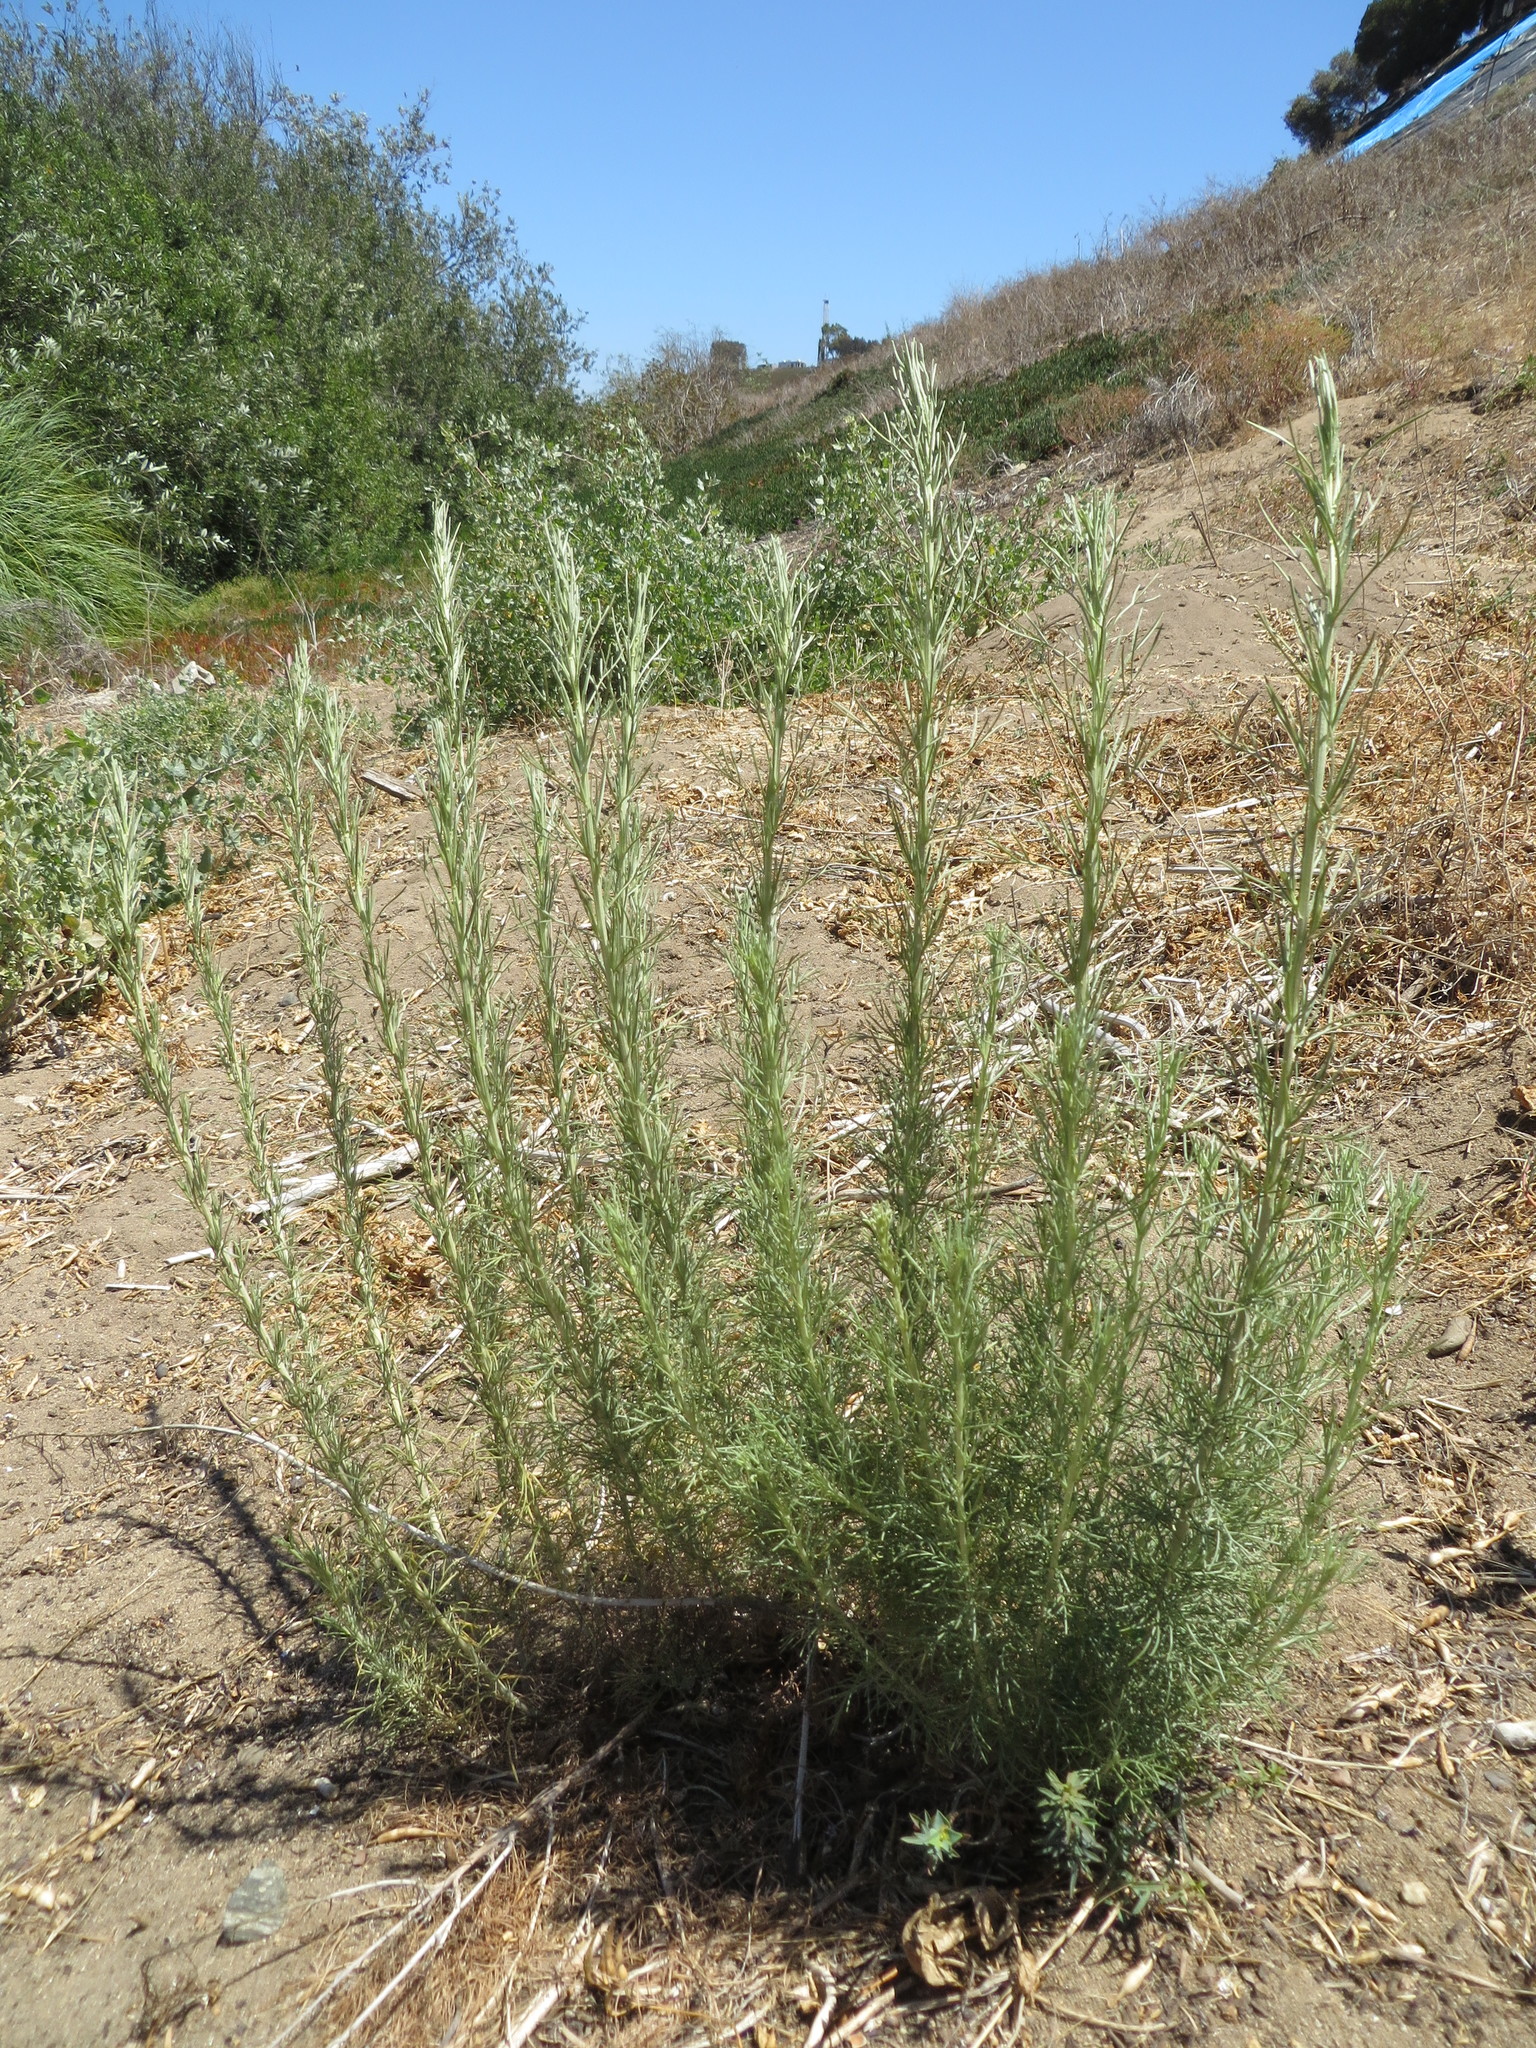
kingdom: Plantae
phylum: Tracheophyta
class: Magnoliopsida
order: Asterales
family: Asteraceae
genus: Artemisia
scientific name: Artemisia californica
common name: California sagebrush
